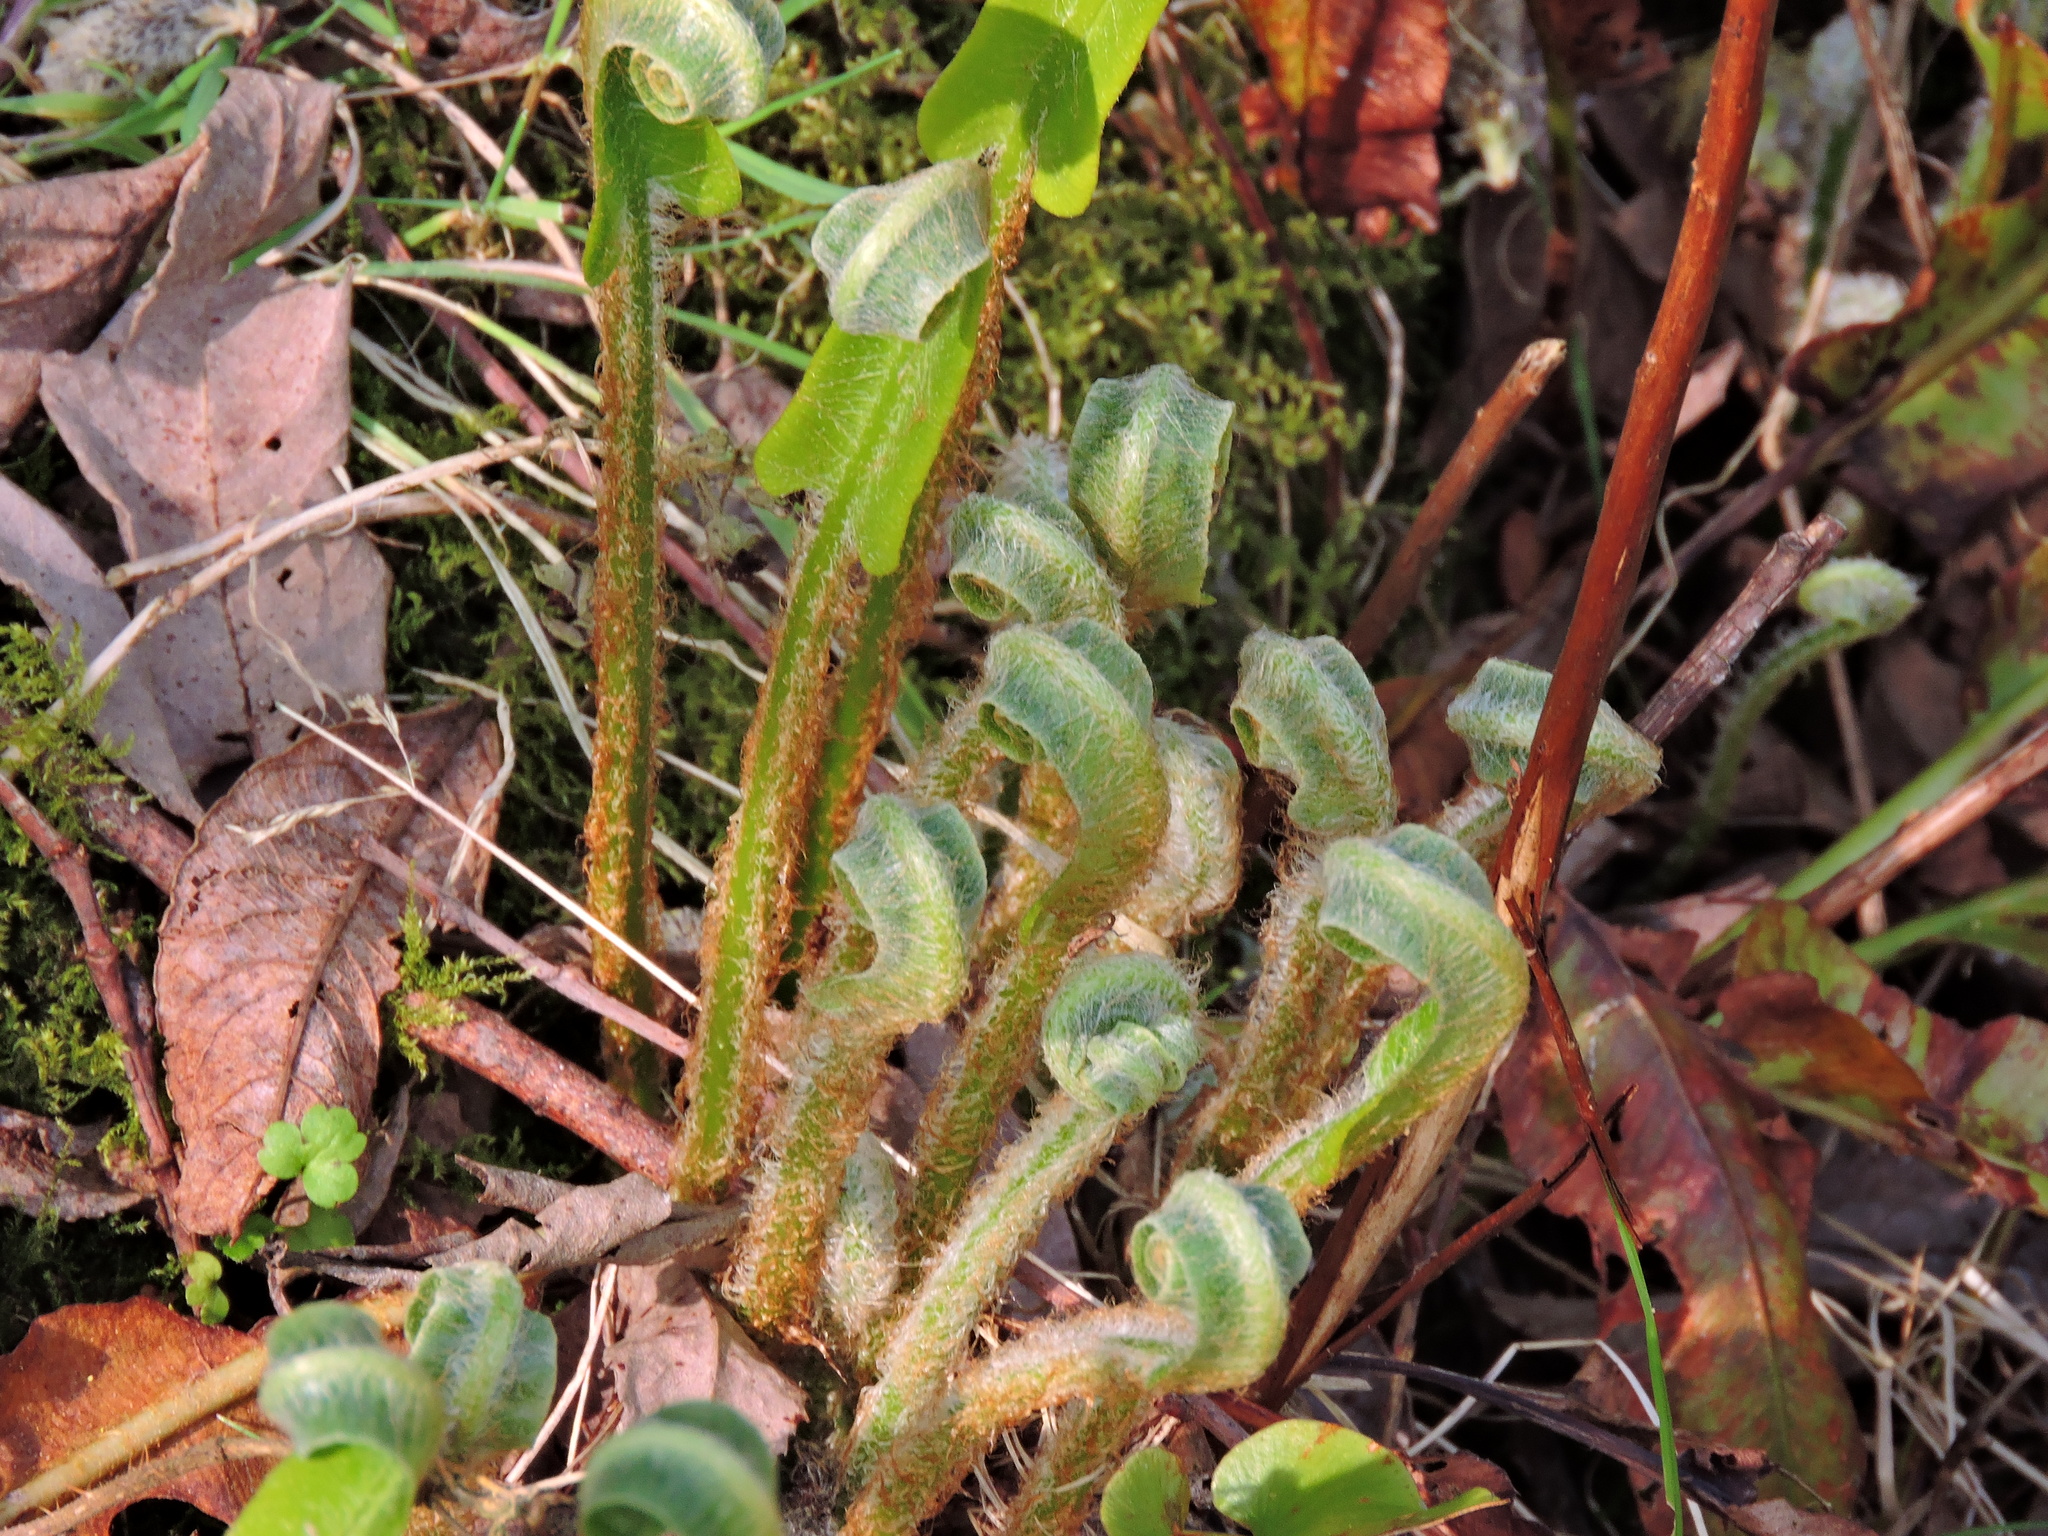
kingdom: Plantae
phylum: Tracheophyta
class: Polypodiopsida
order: Polypodiales
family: Aspleniaceae
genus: Asplenium
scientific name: Asplenium scolopendrium
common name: Hart's-tongue fern
